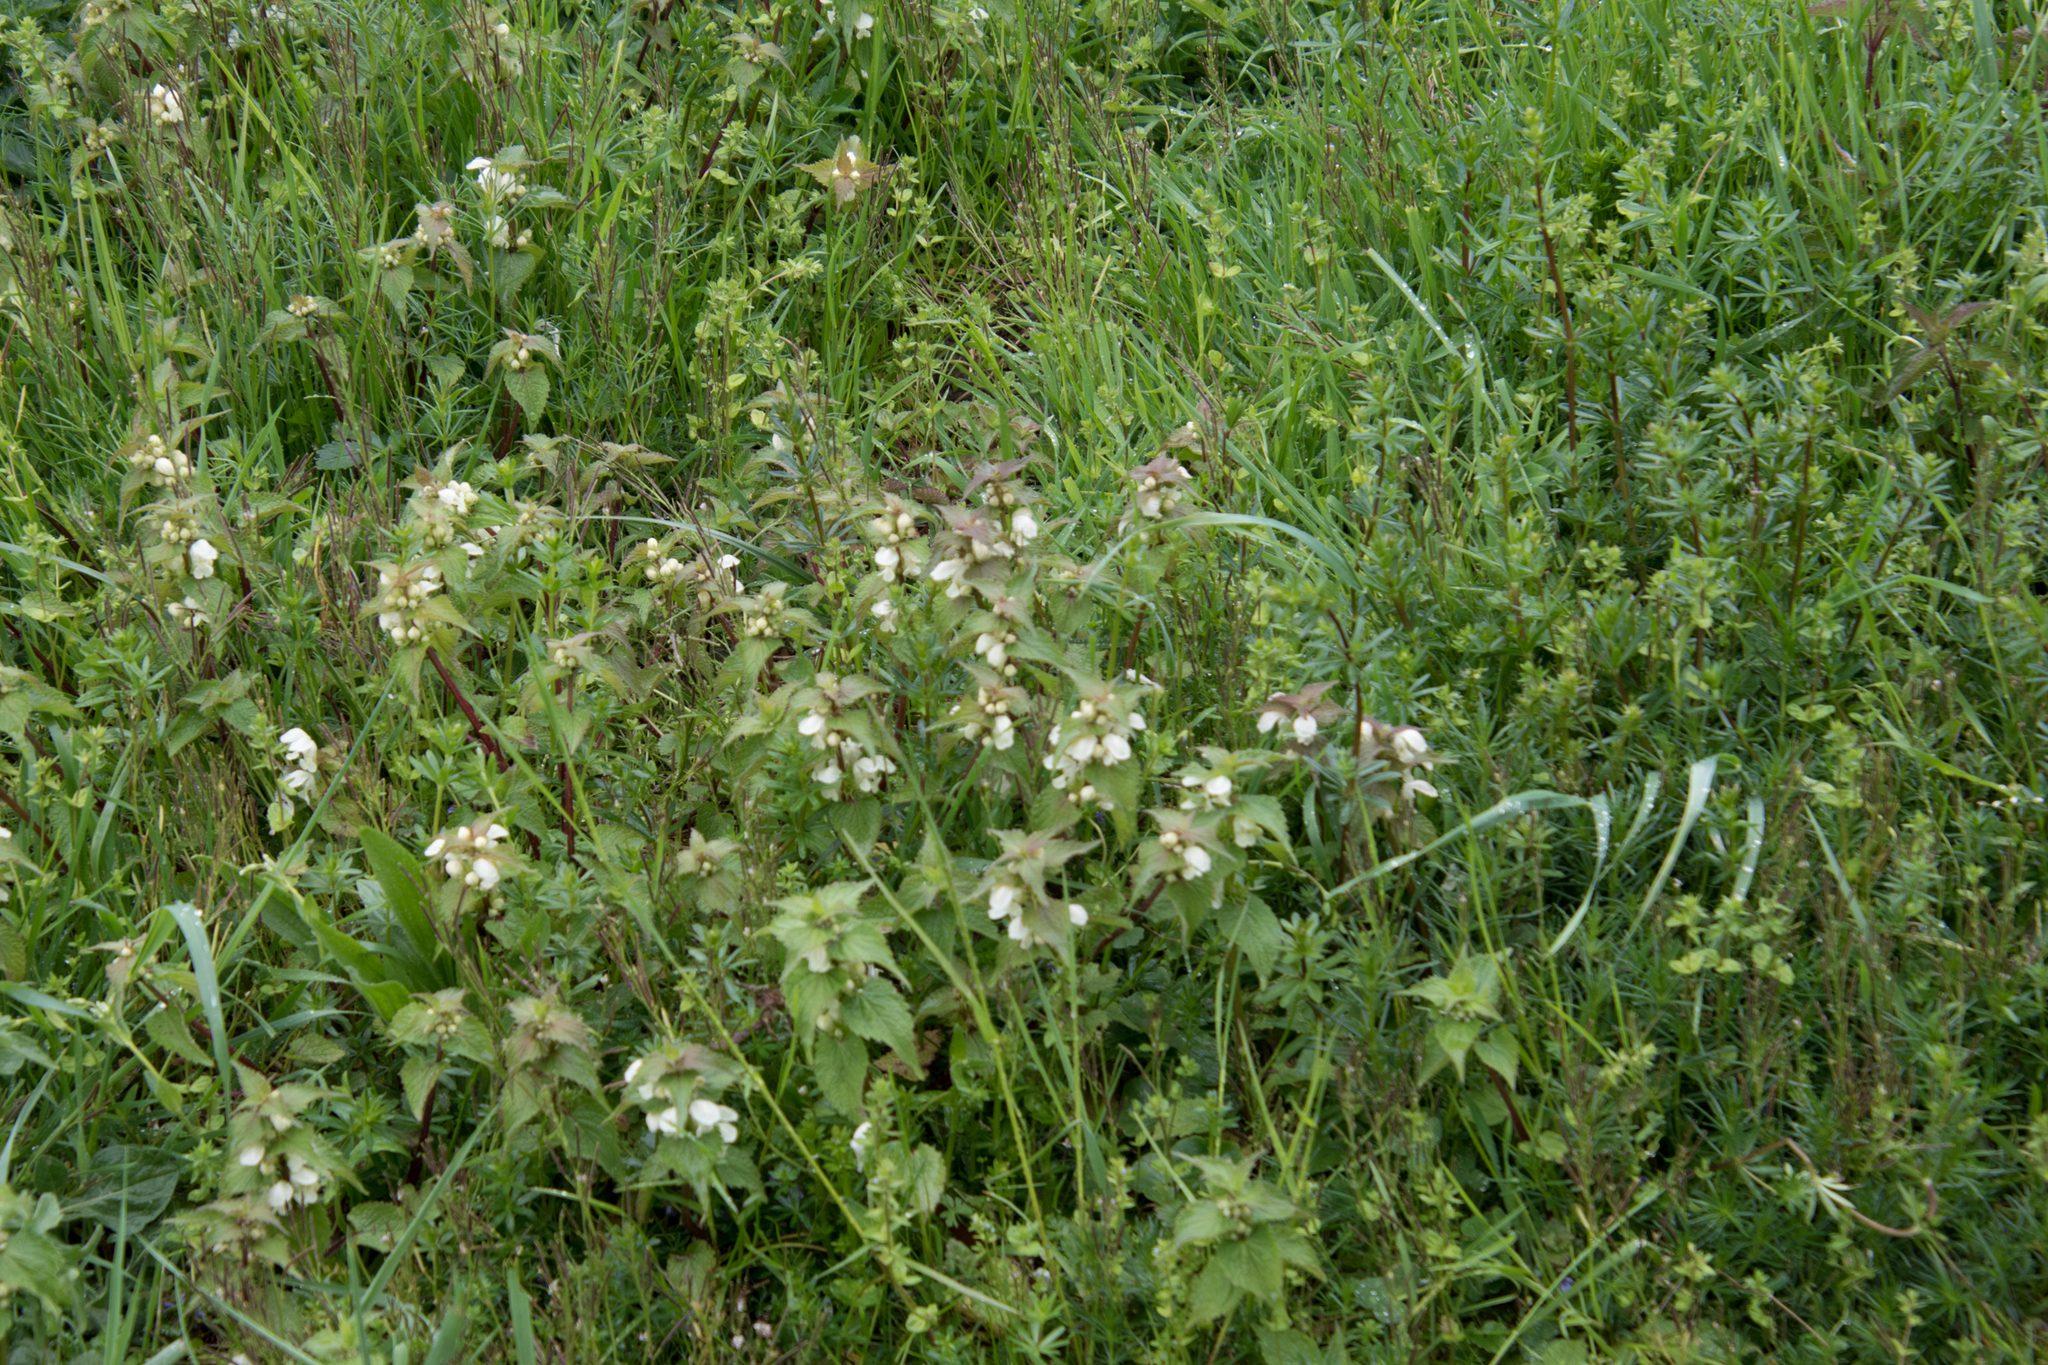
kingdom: Plantae
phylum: Tracheophyta
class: Magnoliopsida
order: Lamiales
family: Lamiaceae
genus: Lamium
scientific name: Lamium album
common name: White dead-nettle
